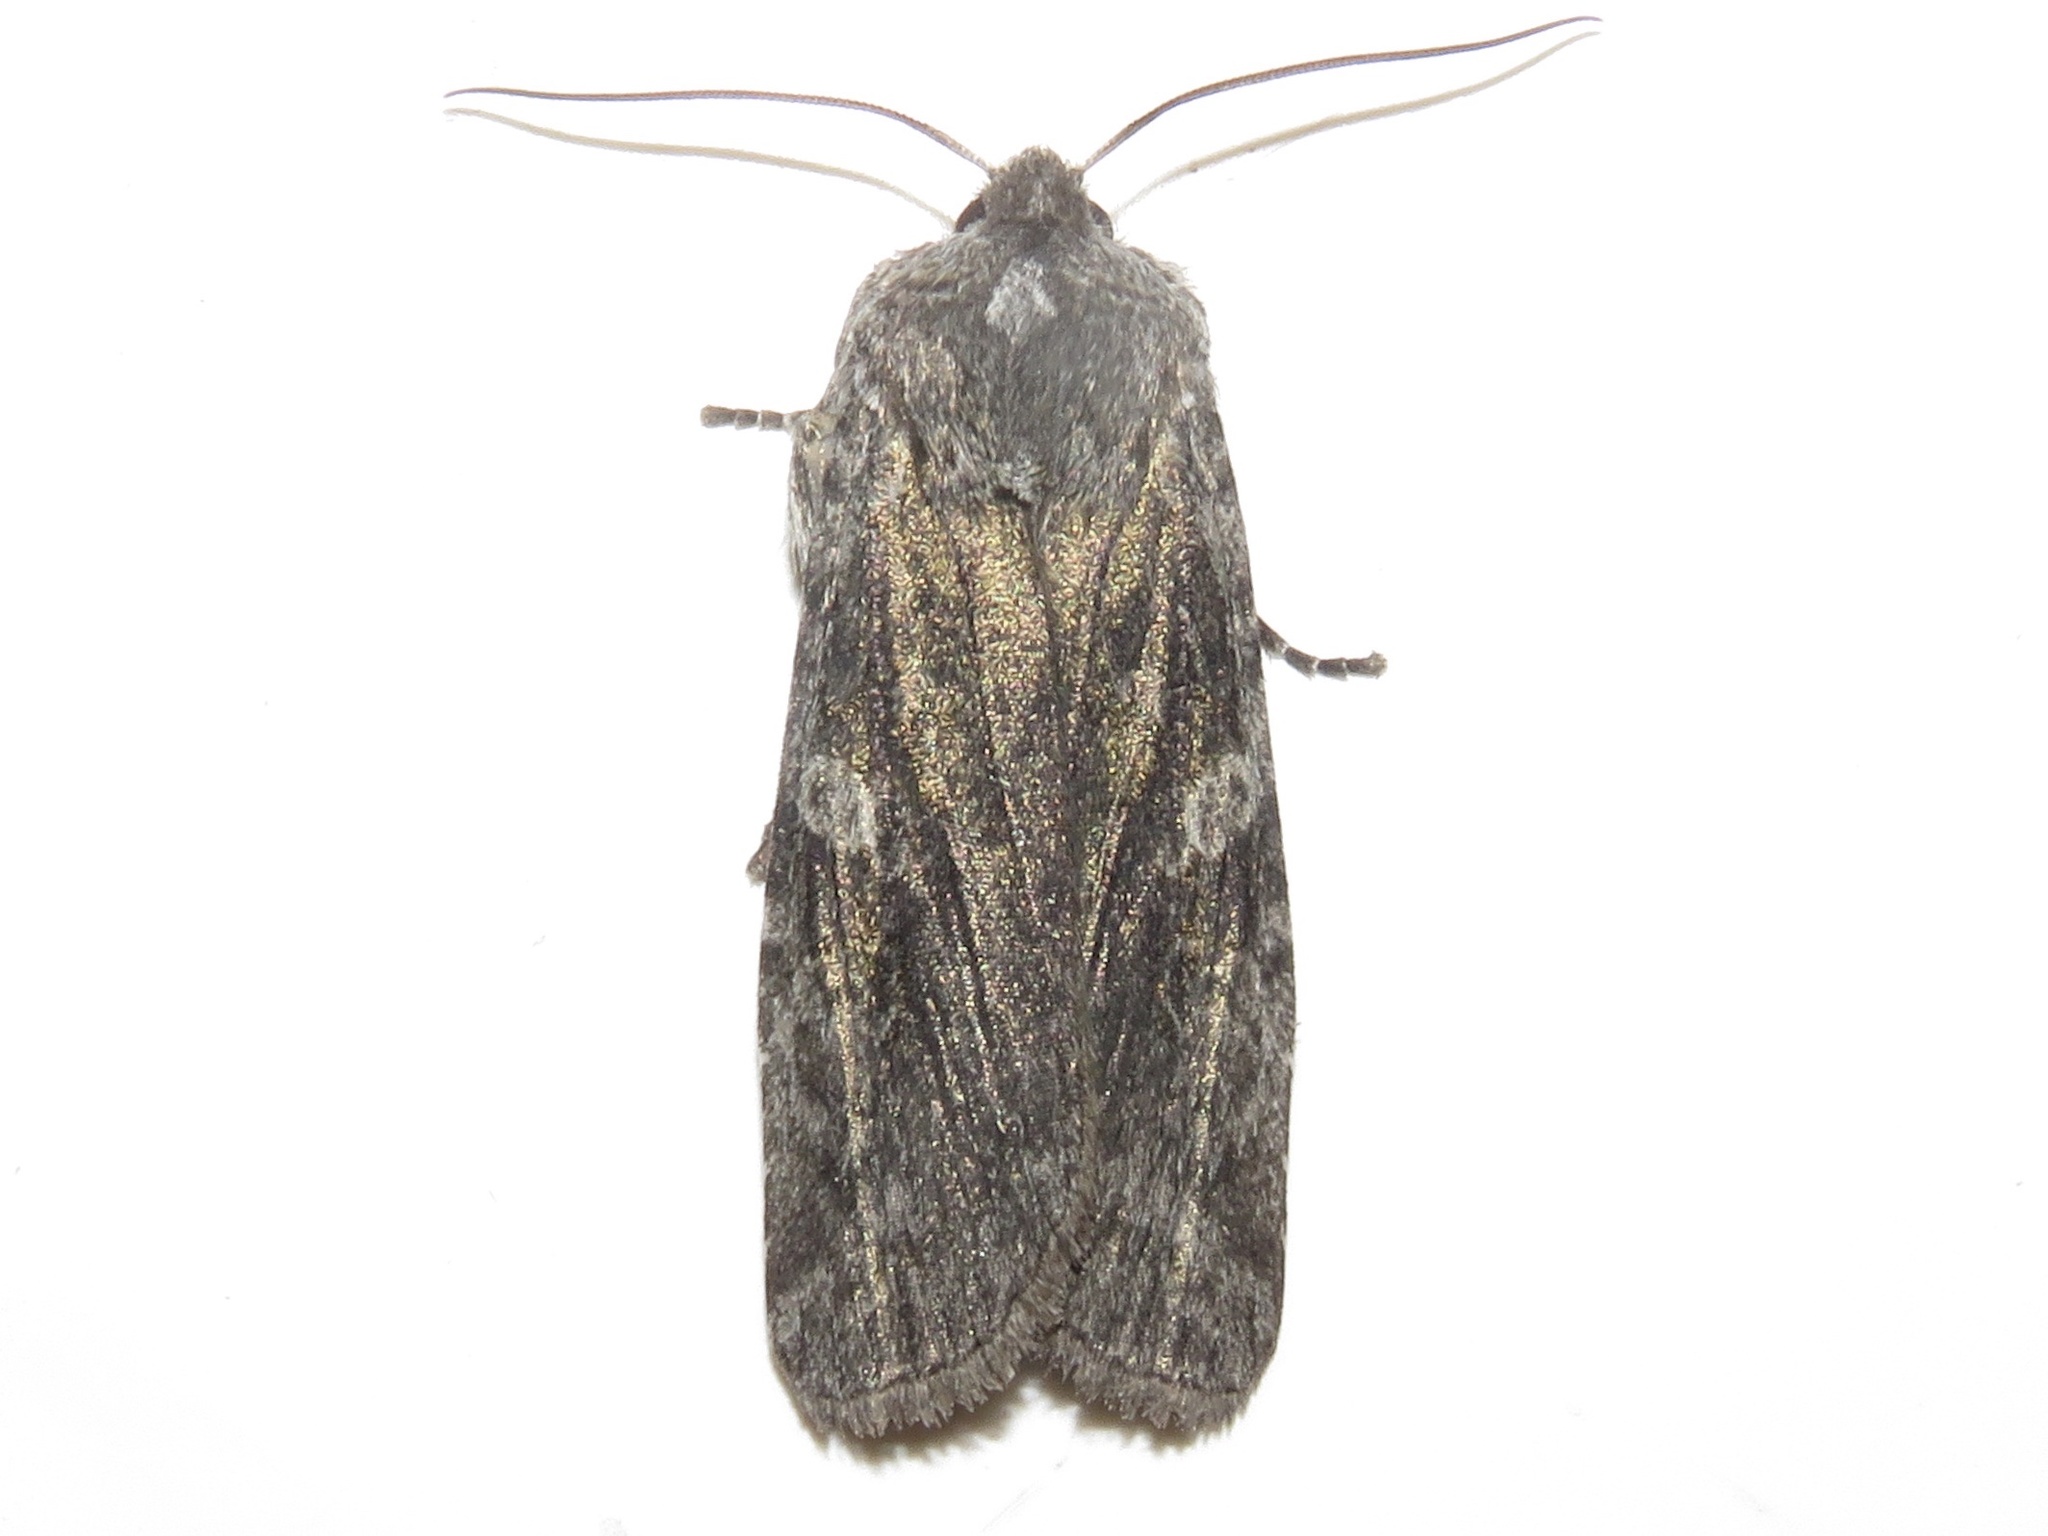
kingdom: Animalia
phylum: Arthropoda
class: Insecta
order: Lepidoptera
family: Noctuidae
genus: Lithophane
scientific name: Lithophane grotei
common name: Grote's pinion moth
